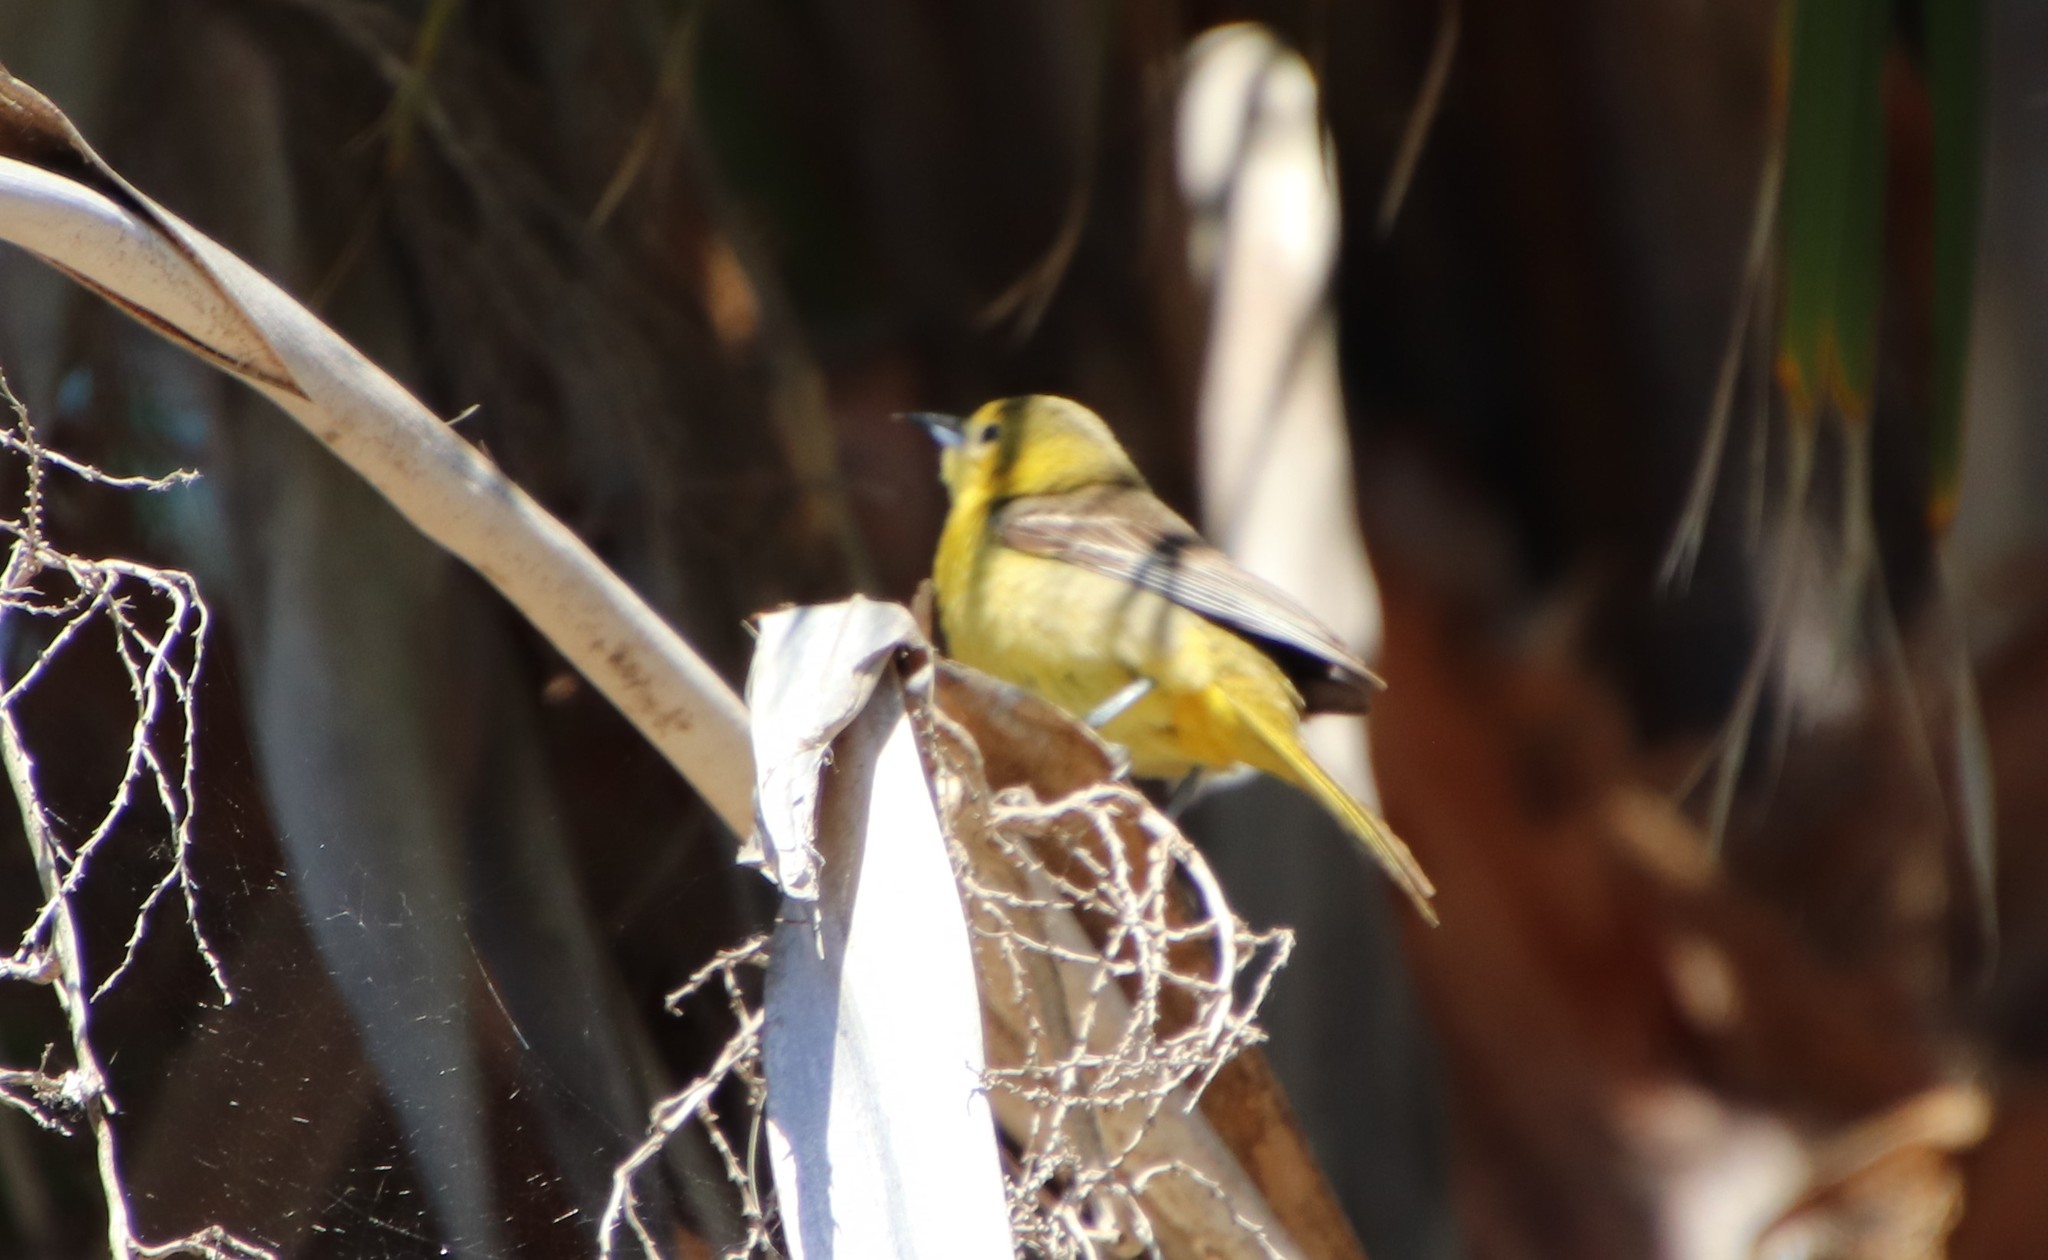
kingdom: Animalia
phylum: Chordata
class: Aves
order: Passeriformes
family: Icteridae
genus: Icterus
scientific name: Icterus cucullatus
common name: Hooded oriole
